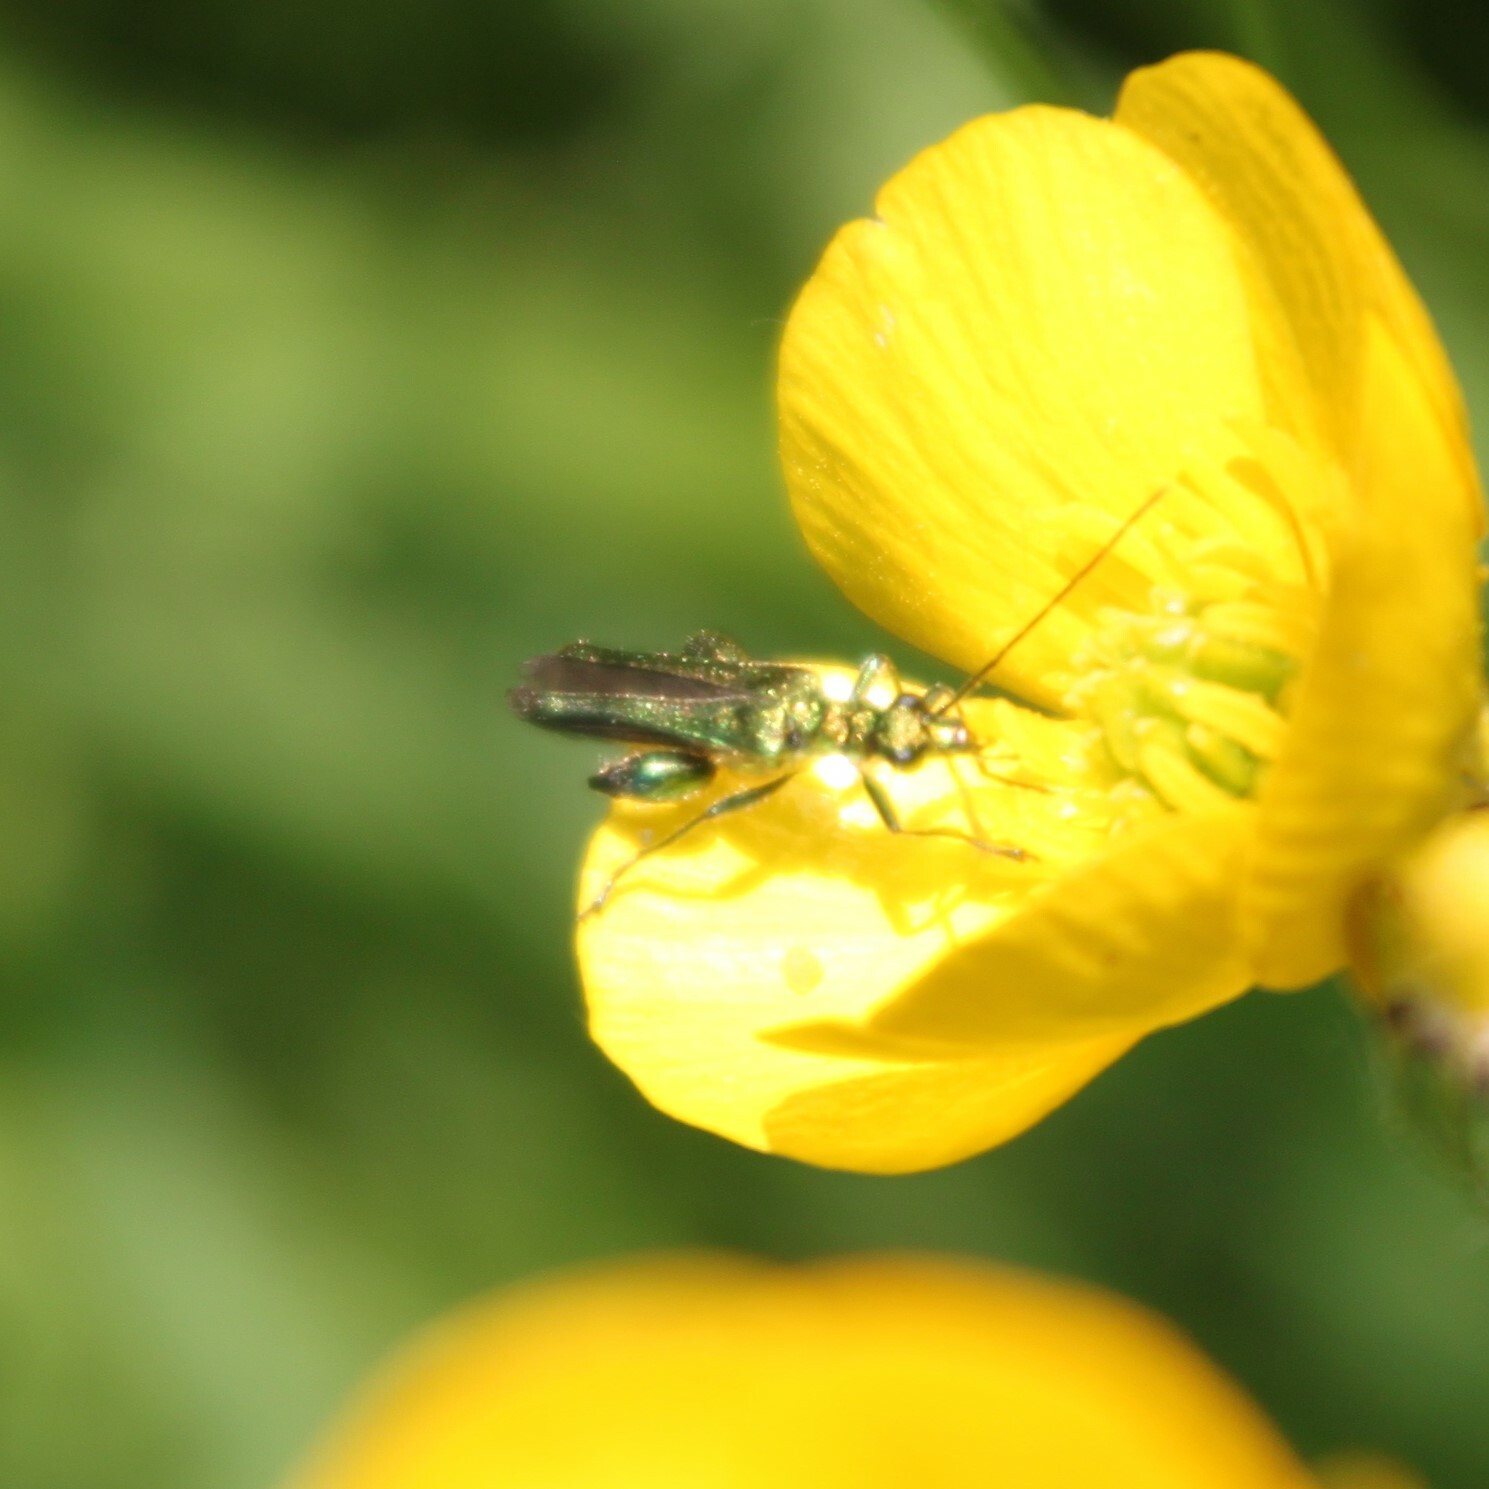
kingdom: Animalia
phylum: Arthropoda
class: Insecta
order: Coleoptera
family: Oedemeridae
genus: Oedemera
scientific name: Oedemera nobilis
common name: Swollen-thighed beetle
